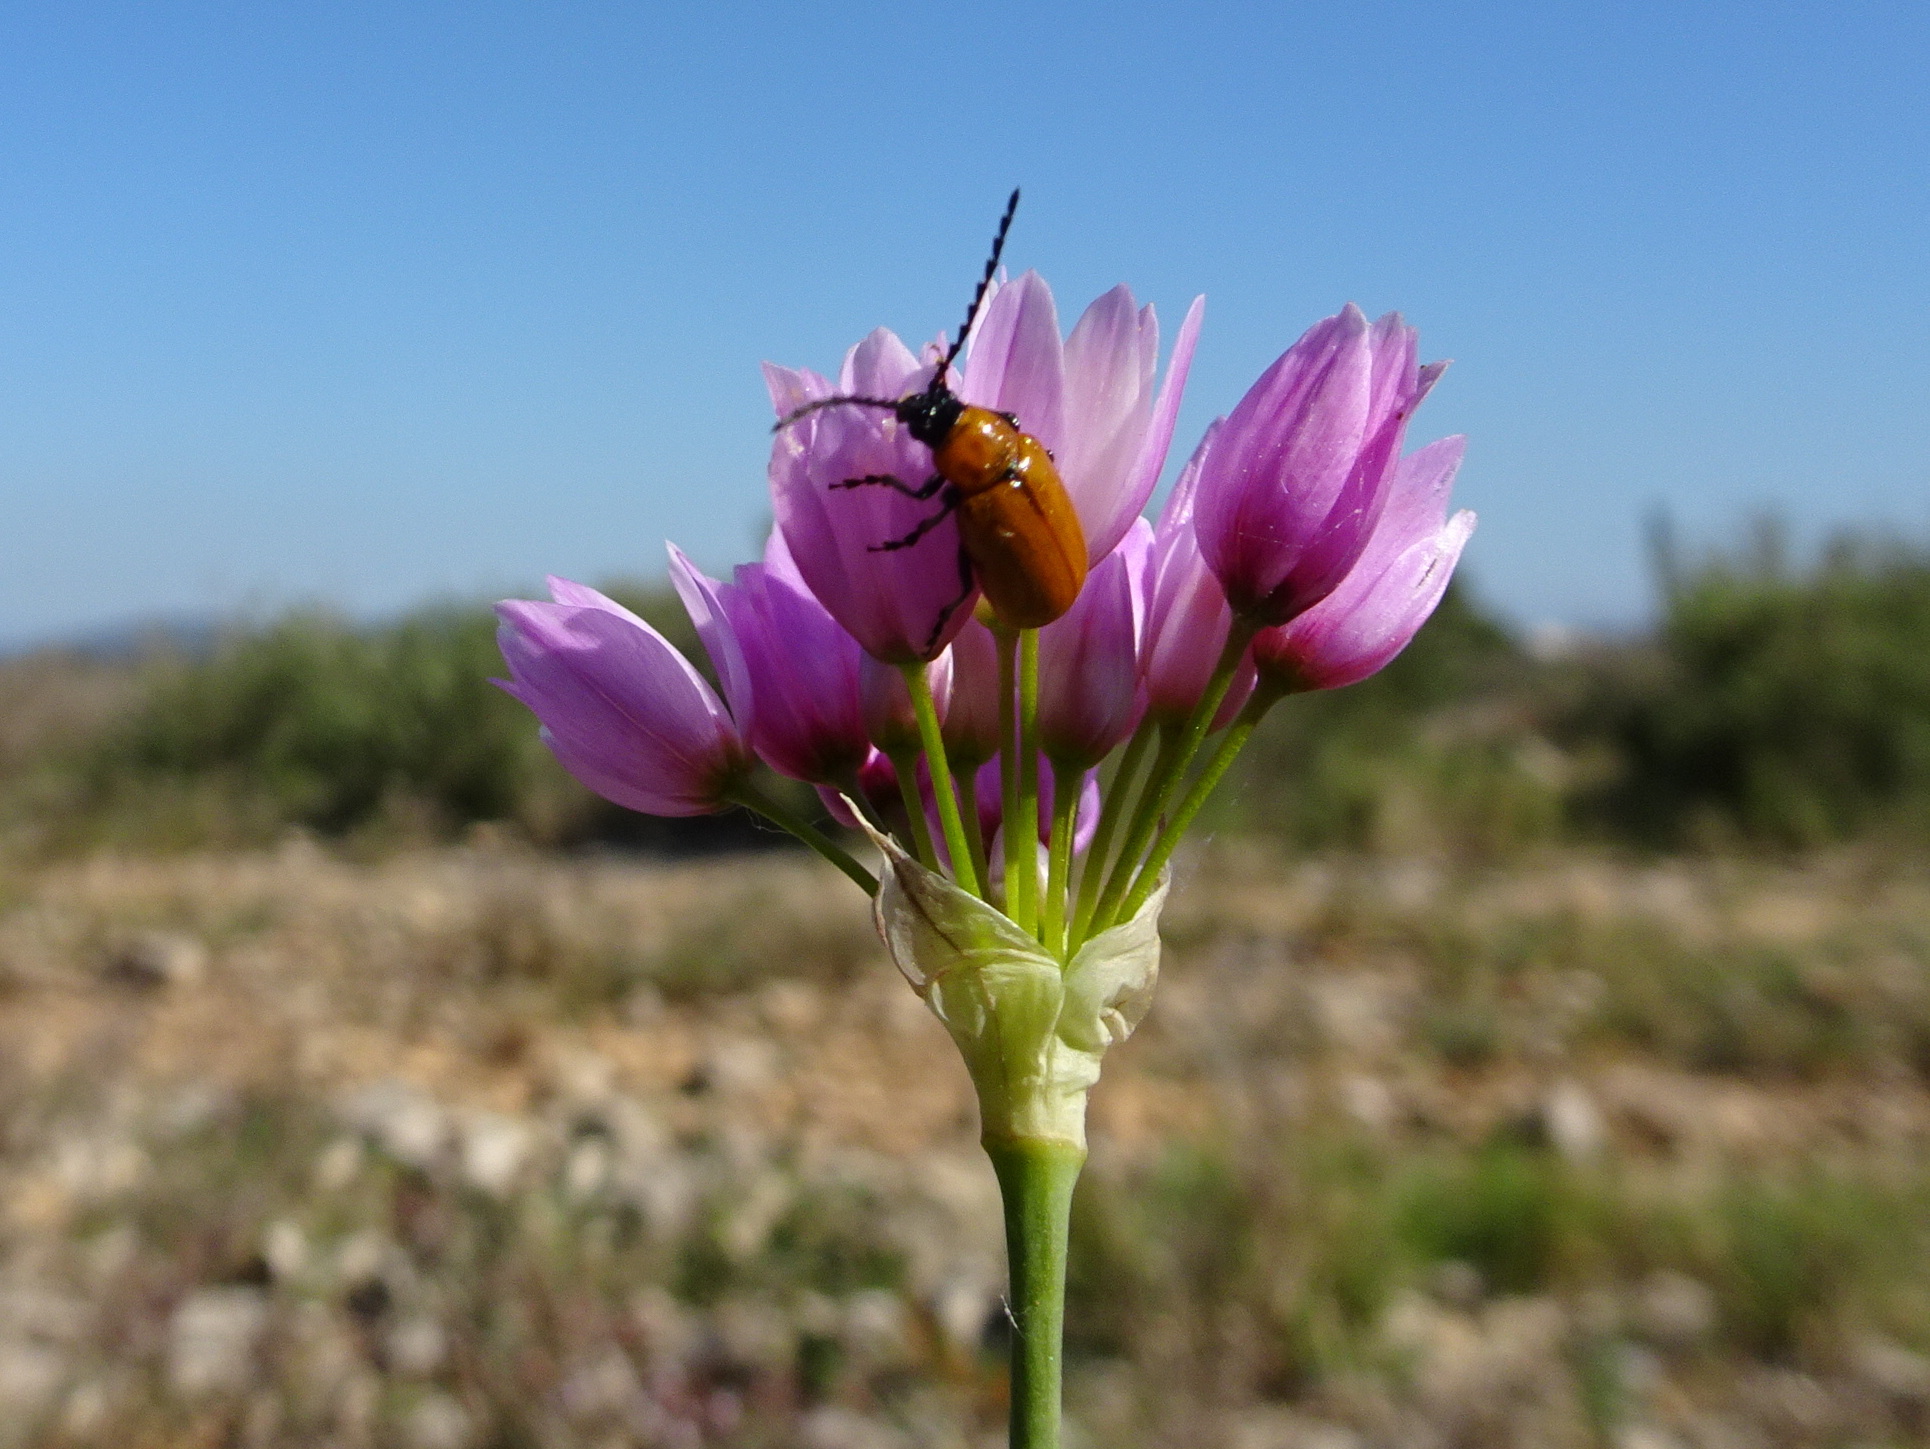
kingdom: Animalia
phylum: Arthropoda
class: Insecta
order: Coleoptera
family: Chrysomelidae
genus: Exosoma
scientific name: Exosoma lusitanicum
